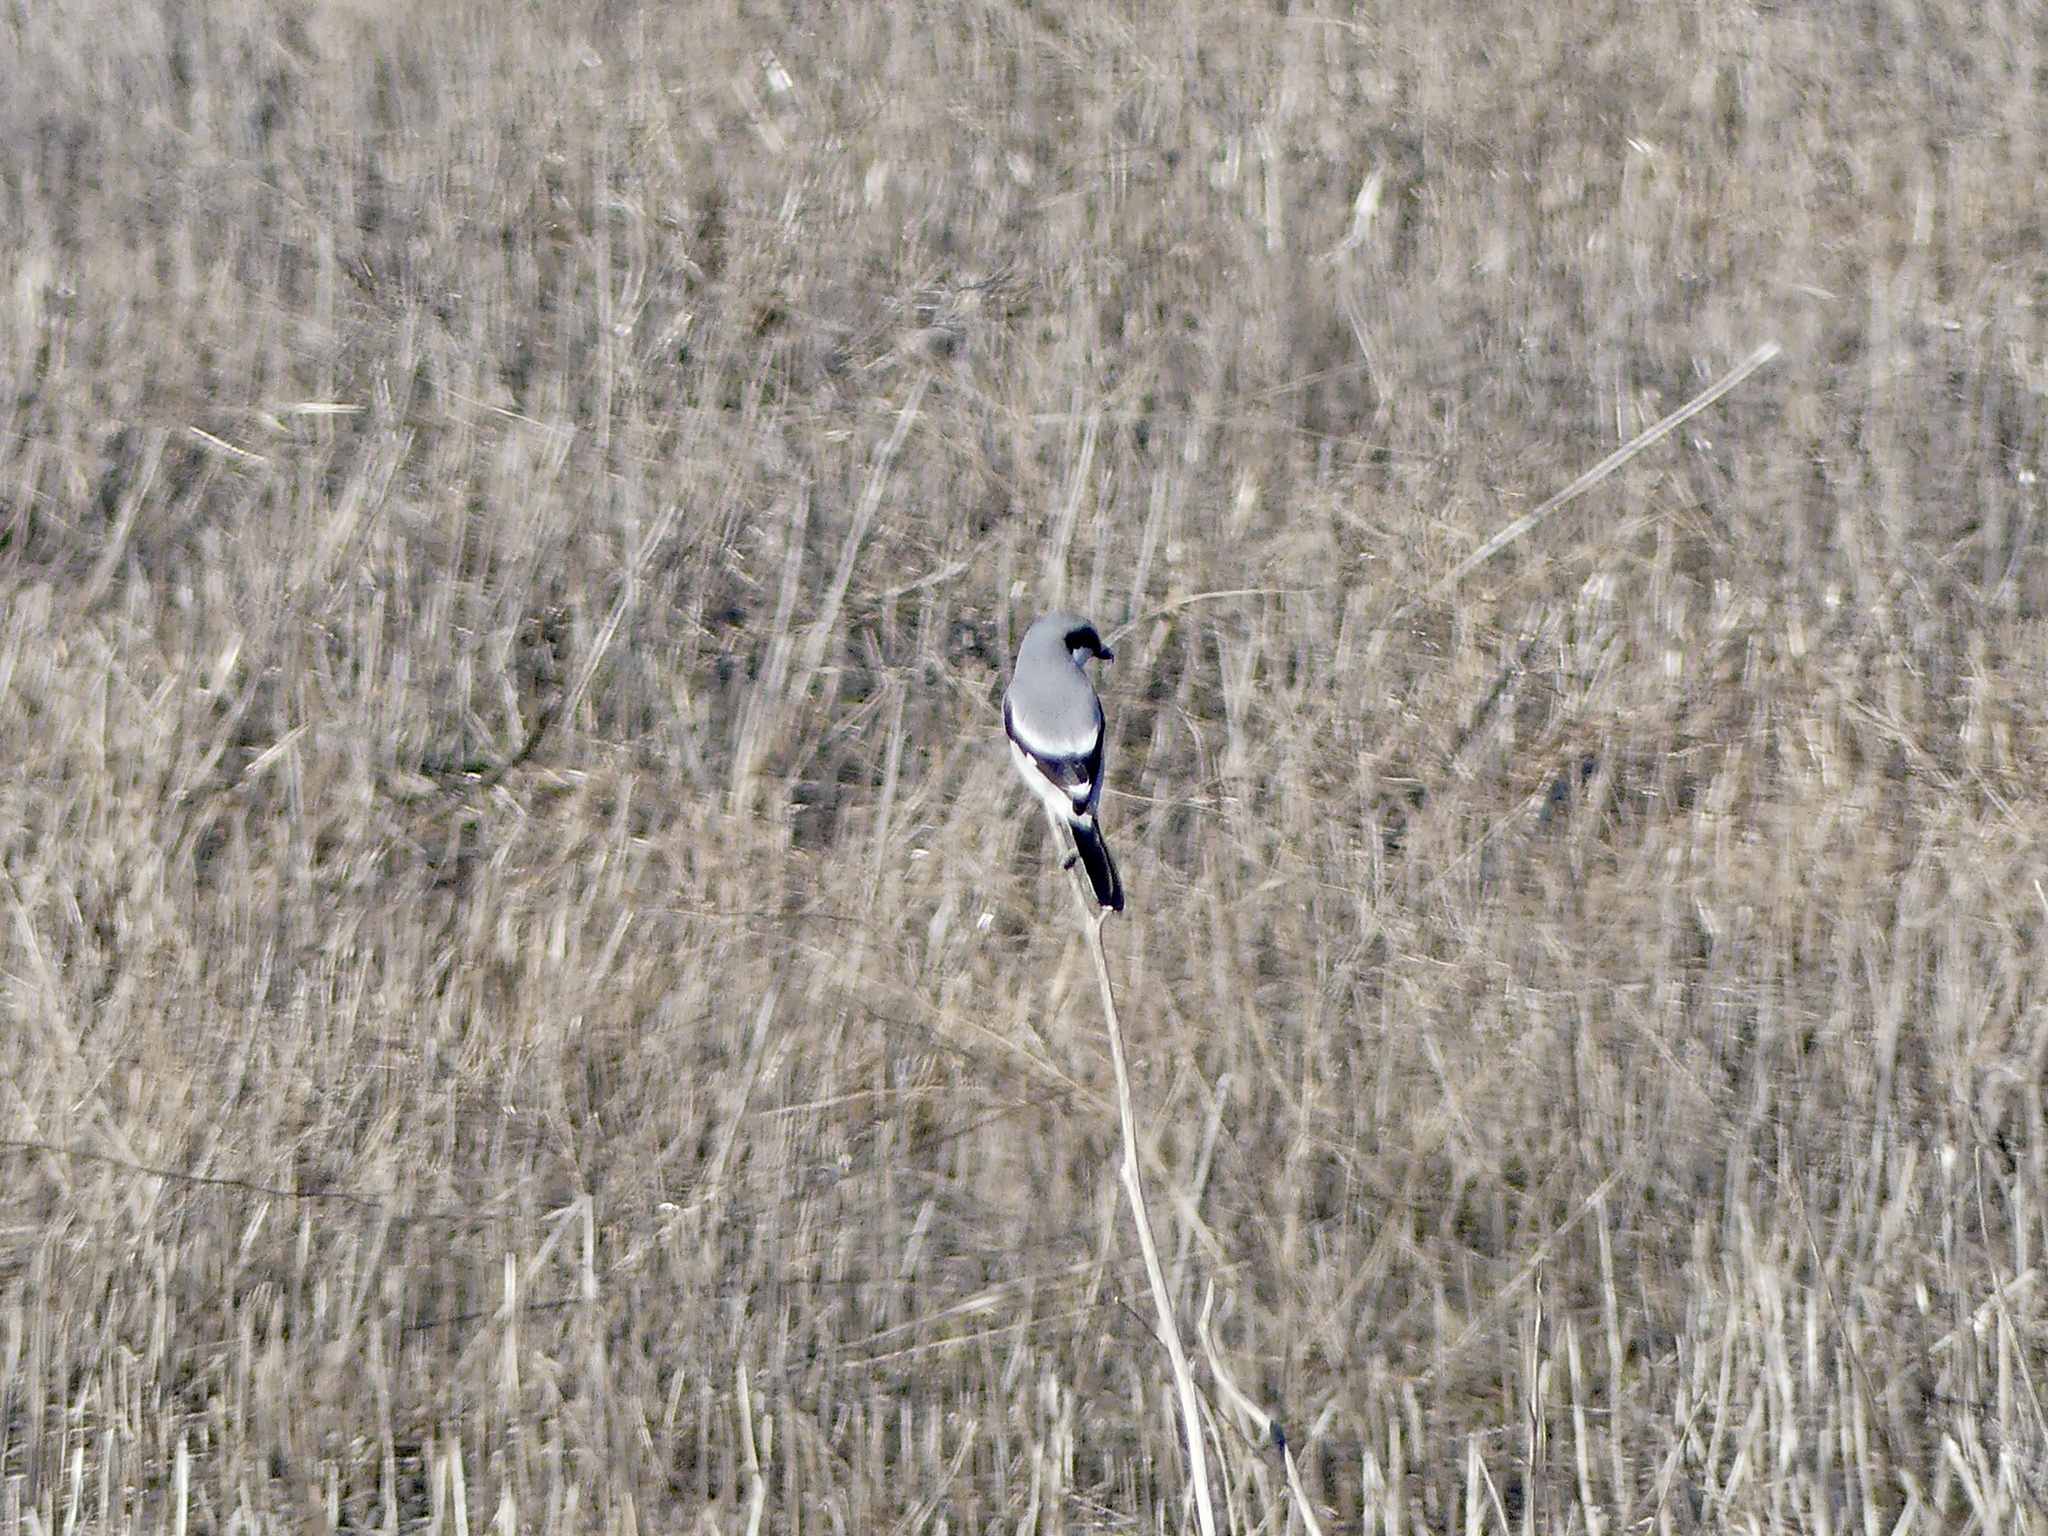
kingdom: Animalia
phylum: Chordata
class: Aves
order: Passeriformes
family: Laniidae
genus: Lanius
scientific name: Lanius ludovicianus
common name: Loggerhead shrike
